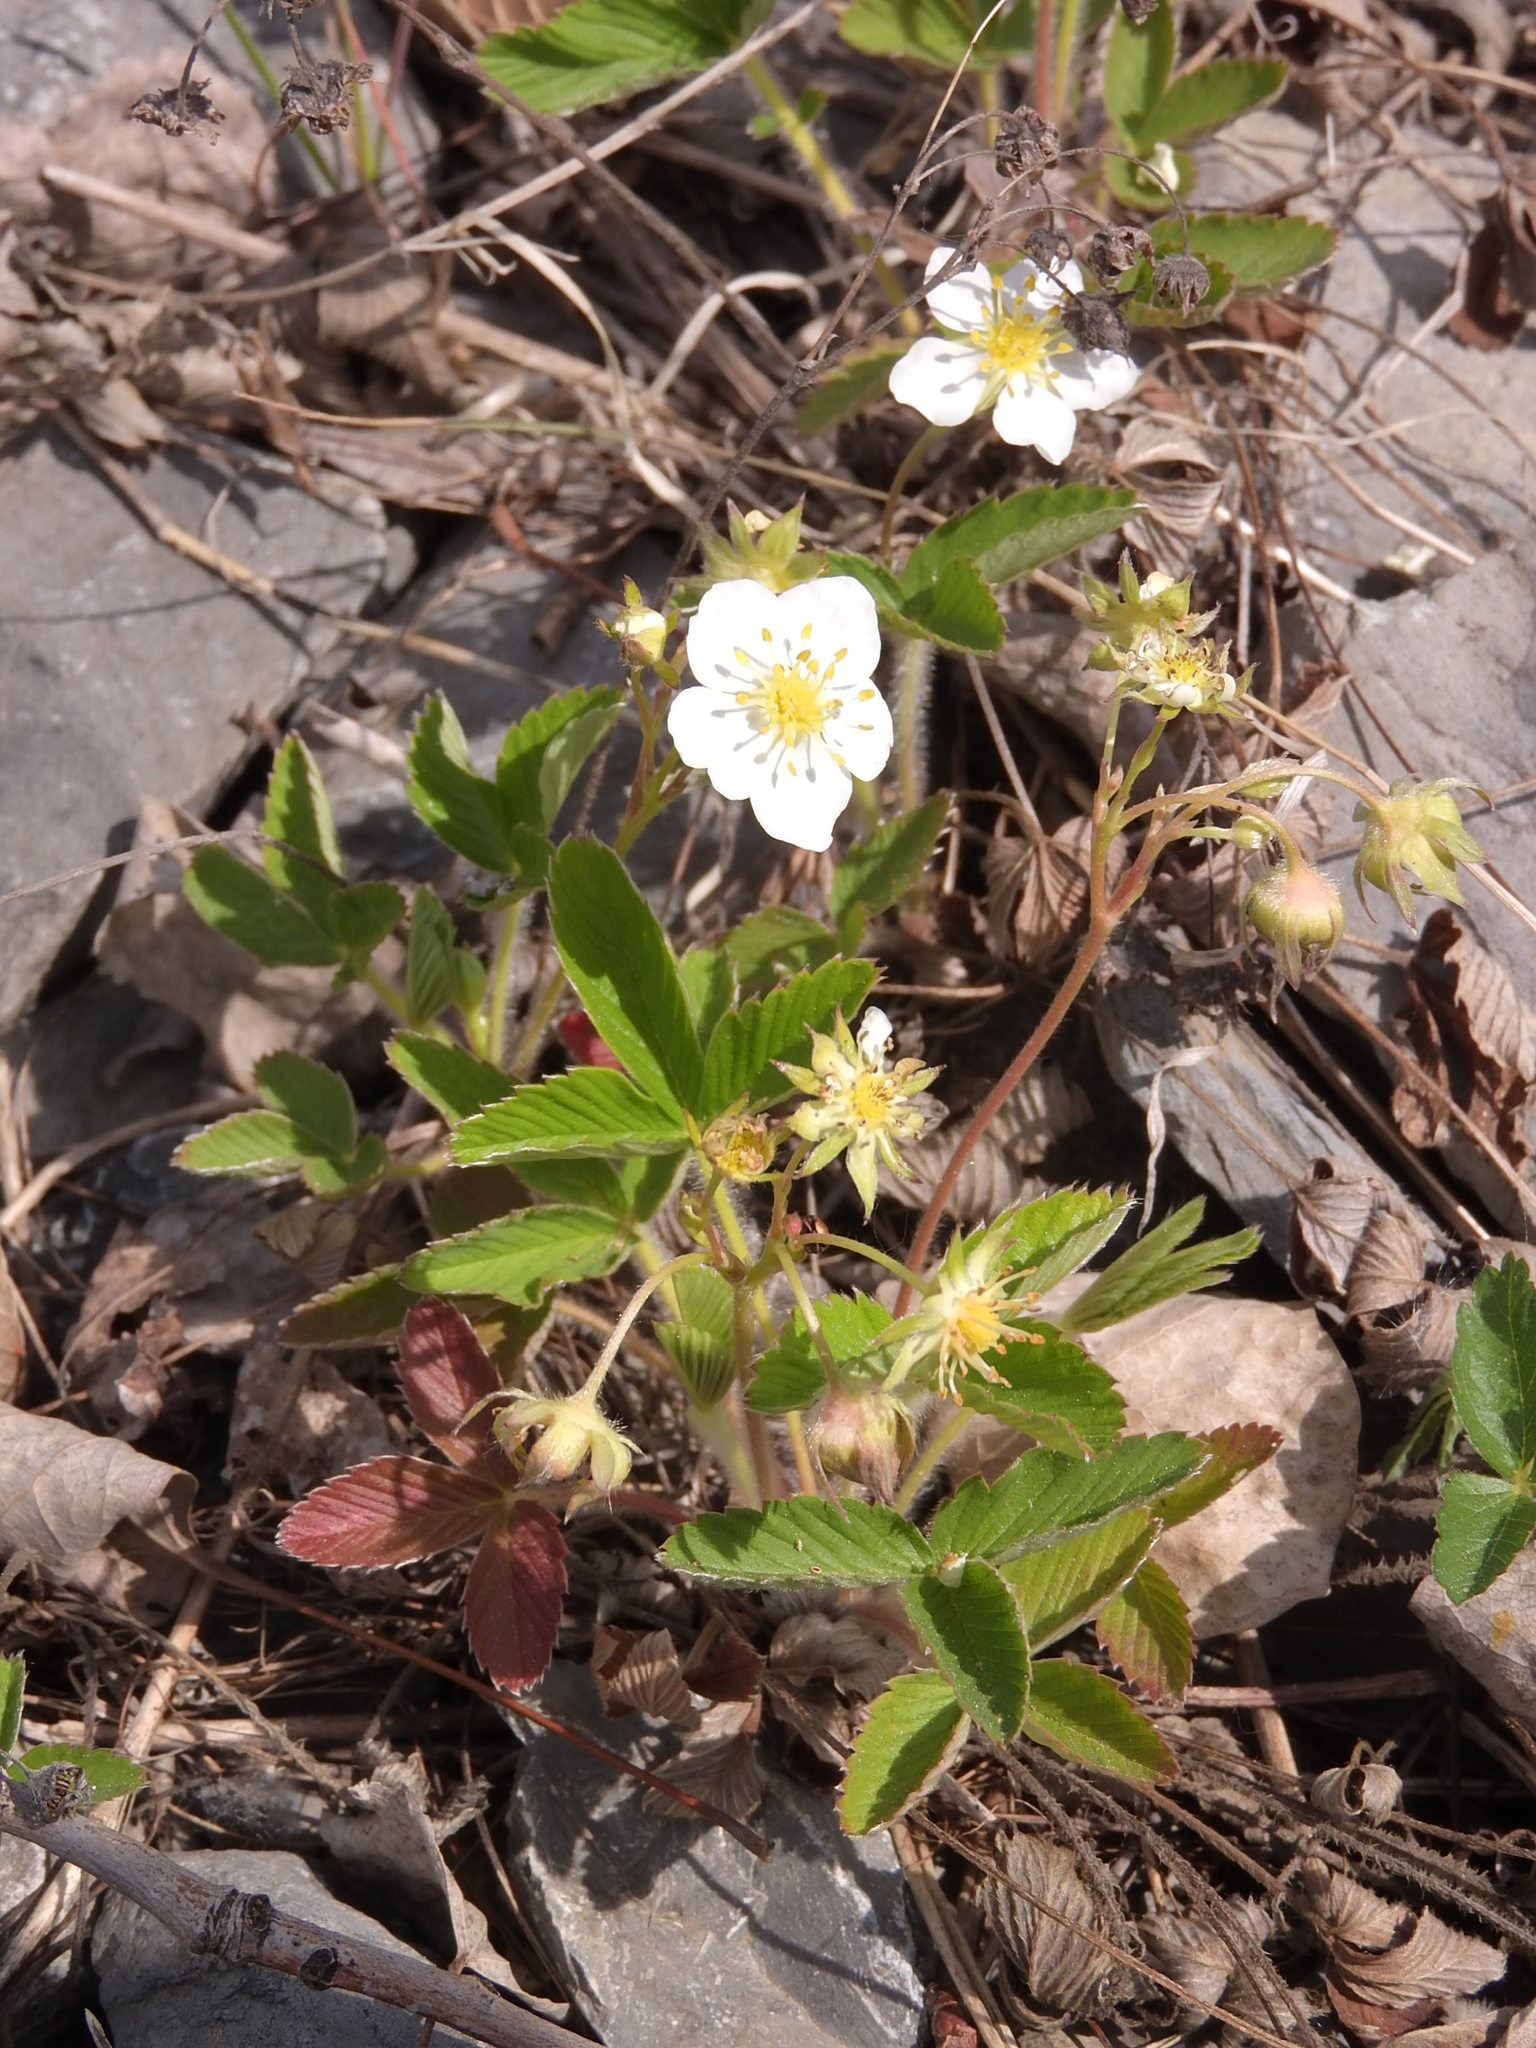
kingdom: Plantae
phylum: Tracheophyta
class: Magnoliopsida
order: Rosales
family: Rosaceae
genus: Fragaria
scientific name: Fragaria viridis
